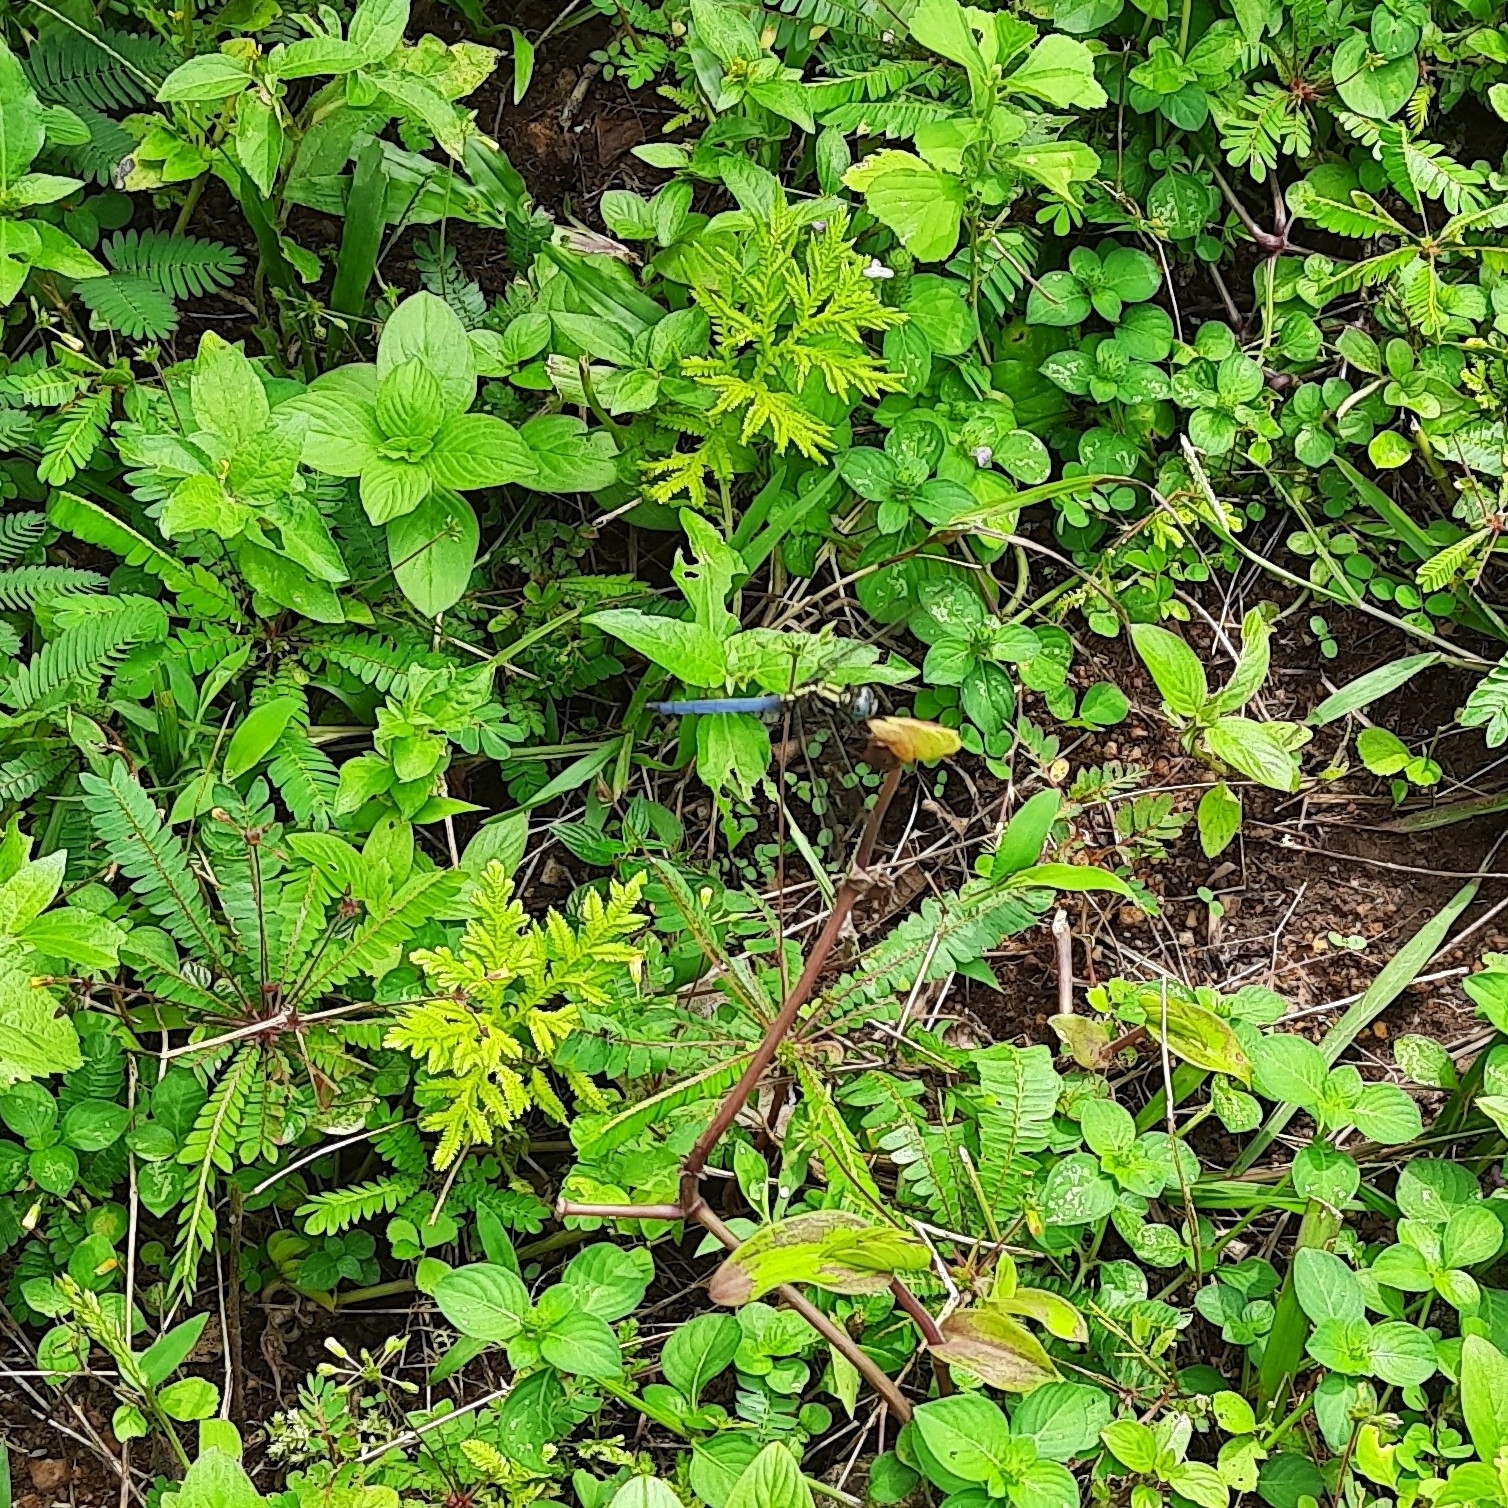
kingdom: Animalia
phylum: Arthropoda
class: Insecta
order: Odonata
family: Libellulidae
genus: Orthetrum
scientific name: Orthetrum luzonicum
